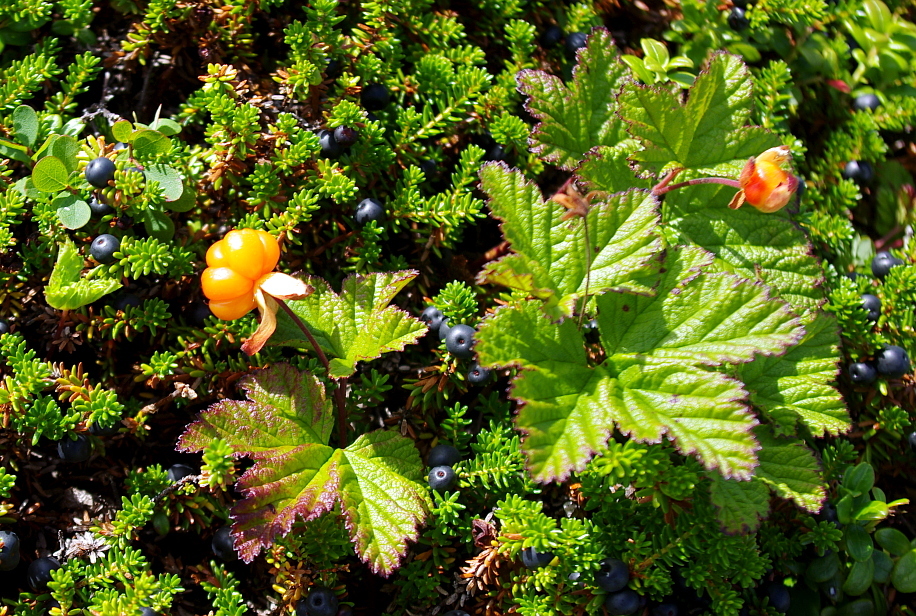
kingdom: Plantae
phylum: Tracheophyta
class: Magnoliopsida
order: Rosales
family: Rosaceae
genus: Rubus
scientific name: Rubus chamaemorus
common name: Cloudberry
